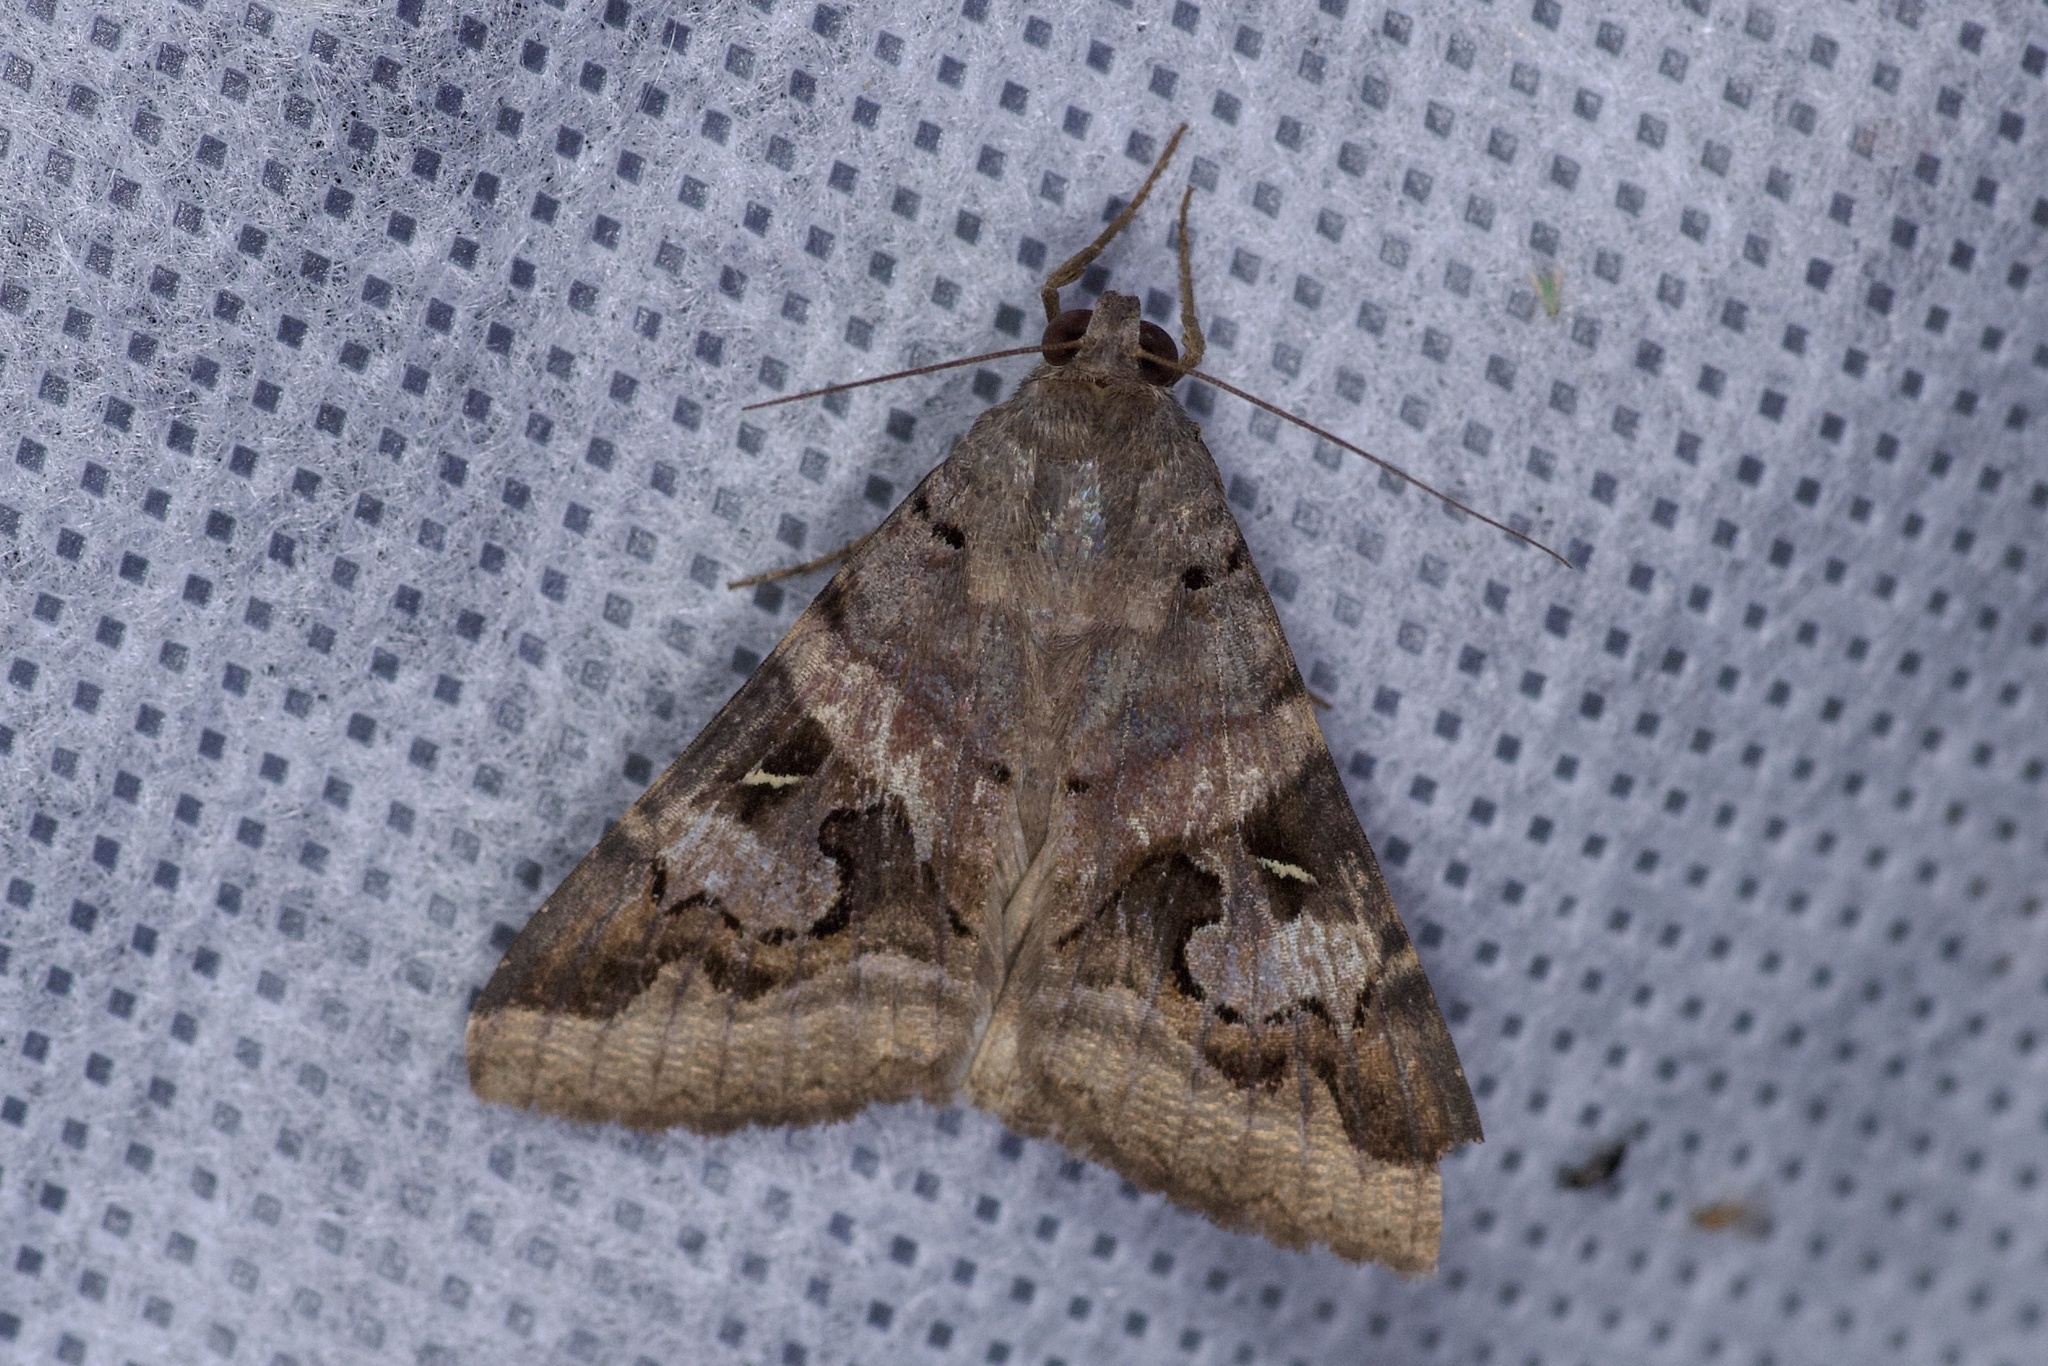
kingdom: Animalia
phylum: Arthropoda
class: Insecta
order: Lepidoptera
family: Erebidae
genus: Melipotis
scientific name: Melipotis indomita
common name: Moth
